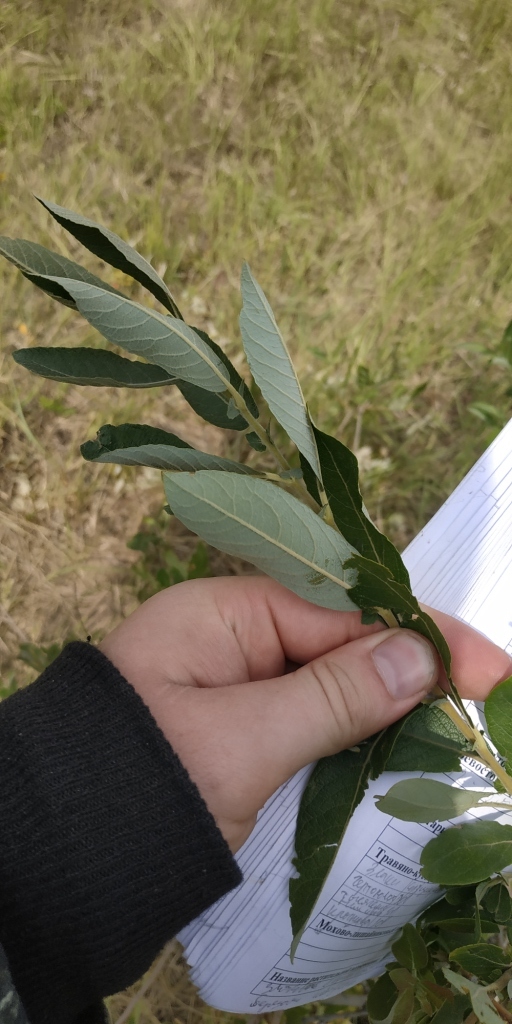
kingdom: Plantae
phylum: Tracheophyta
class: Magnoliopsida
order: Malpighiales
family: Salicaceae
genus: Salix
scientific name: Salix cinerea
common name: Common sallow
